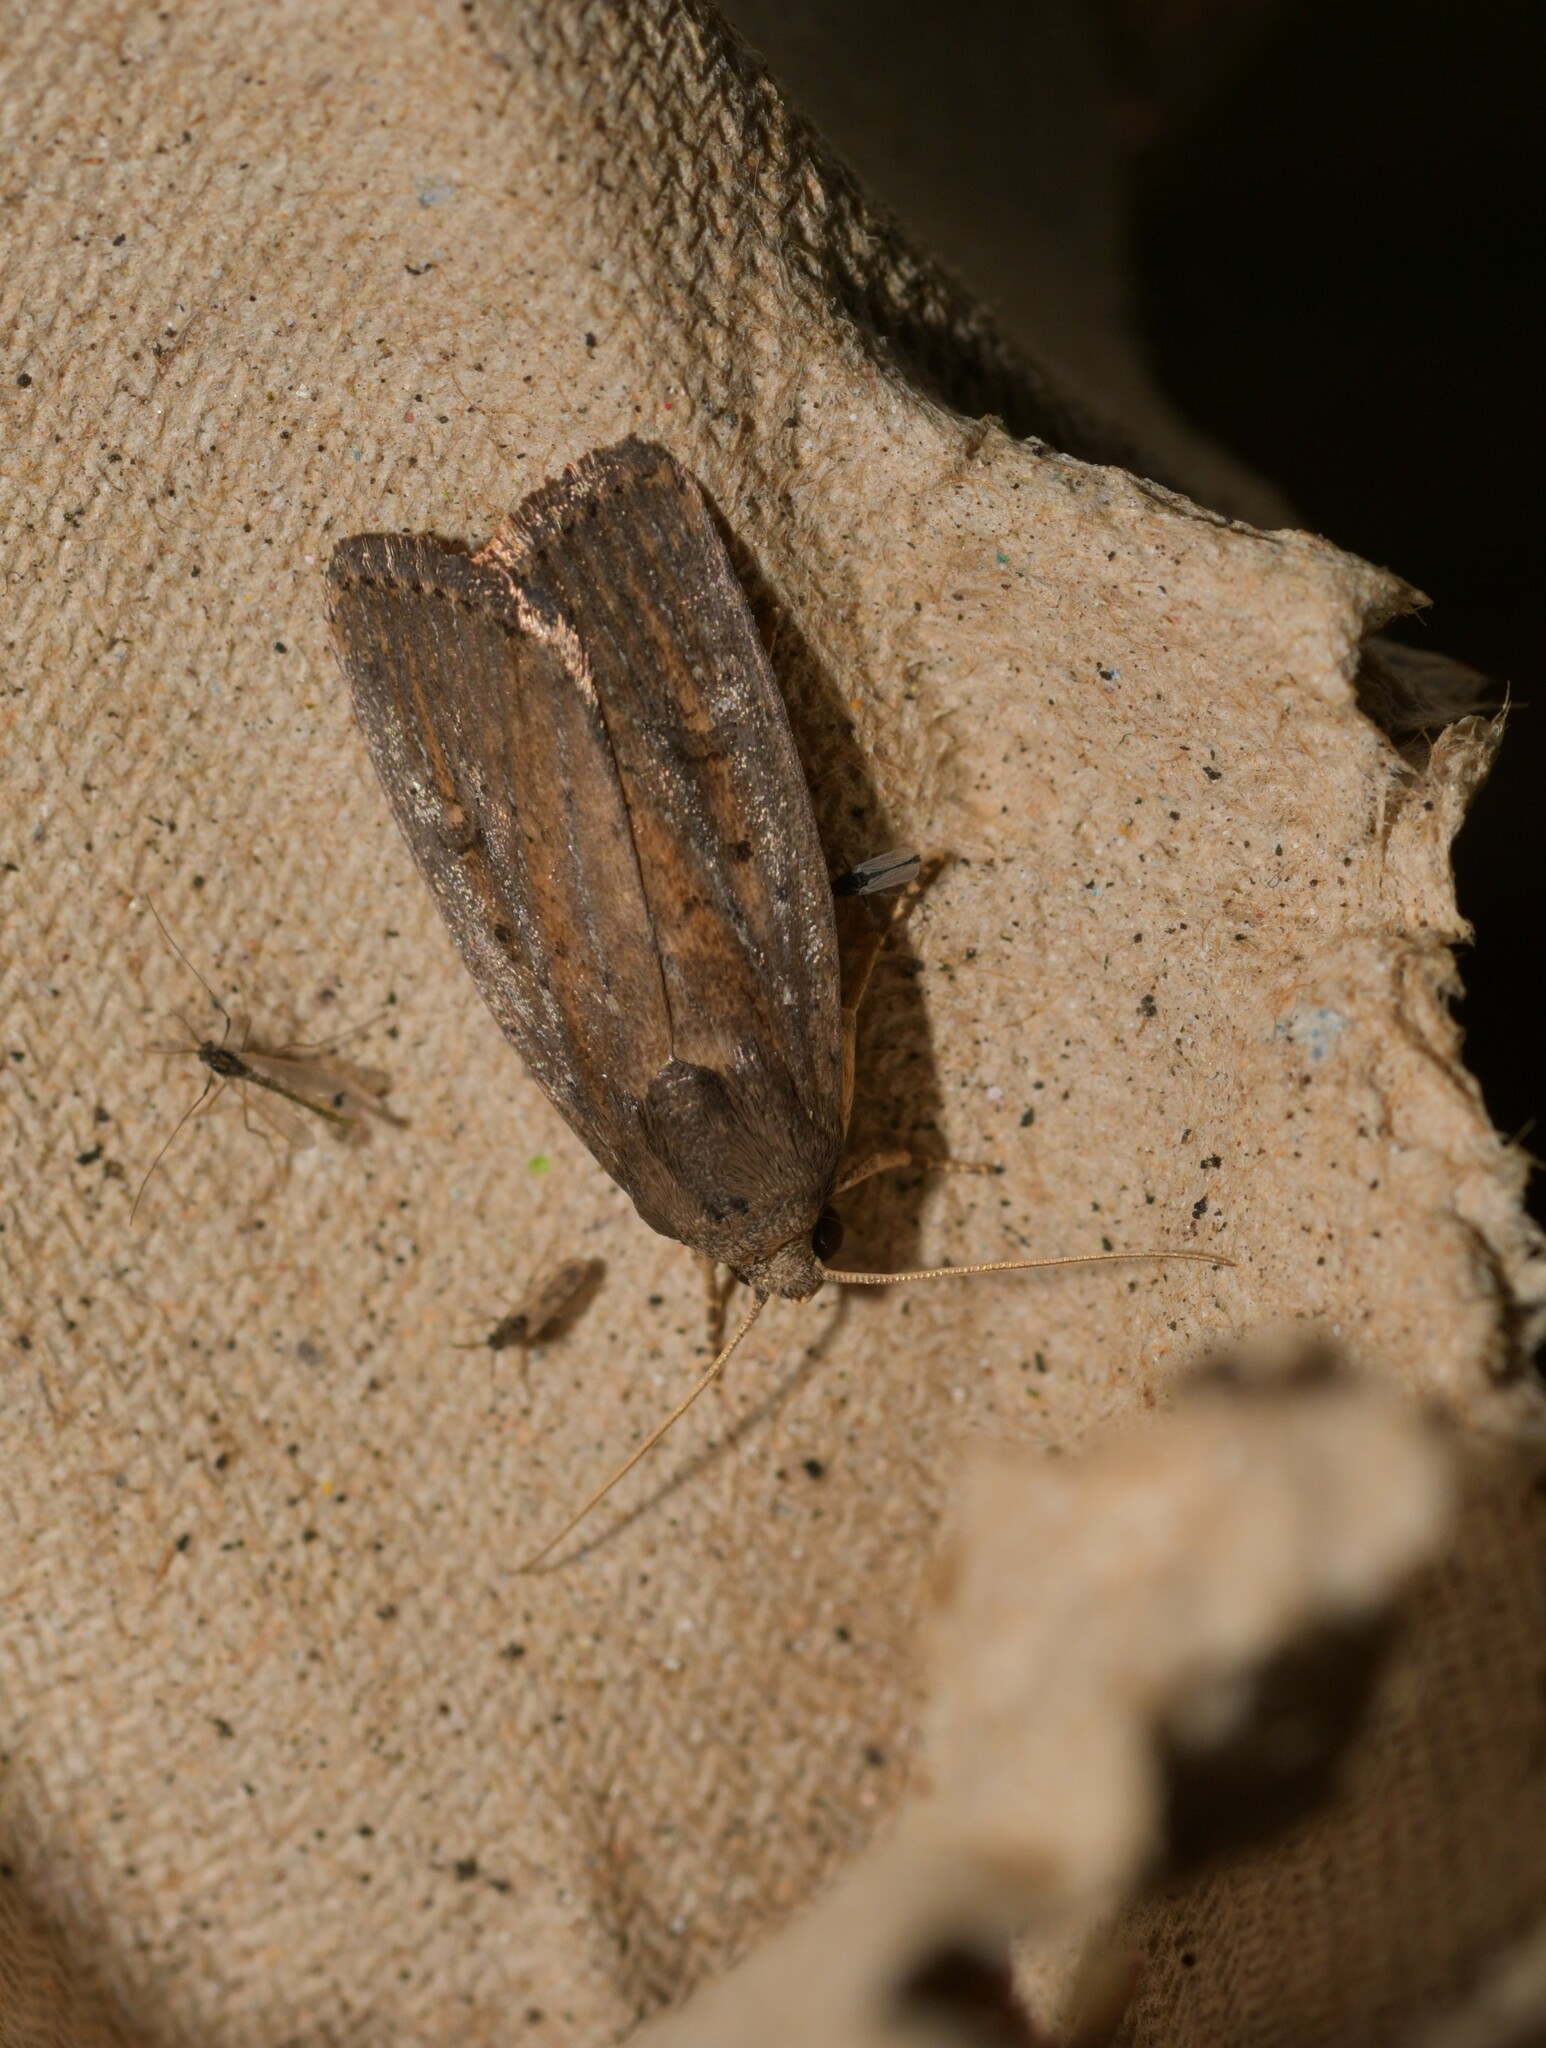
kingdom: Animalia
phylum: Arthropoda
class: Insecta
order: Lepidoptera
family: Noctuidae
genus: Athetis
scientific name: Athetis hospes
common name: Porter's rustic
